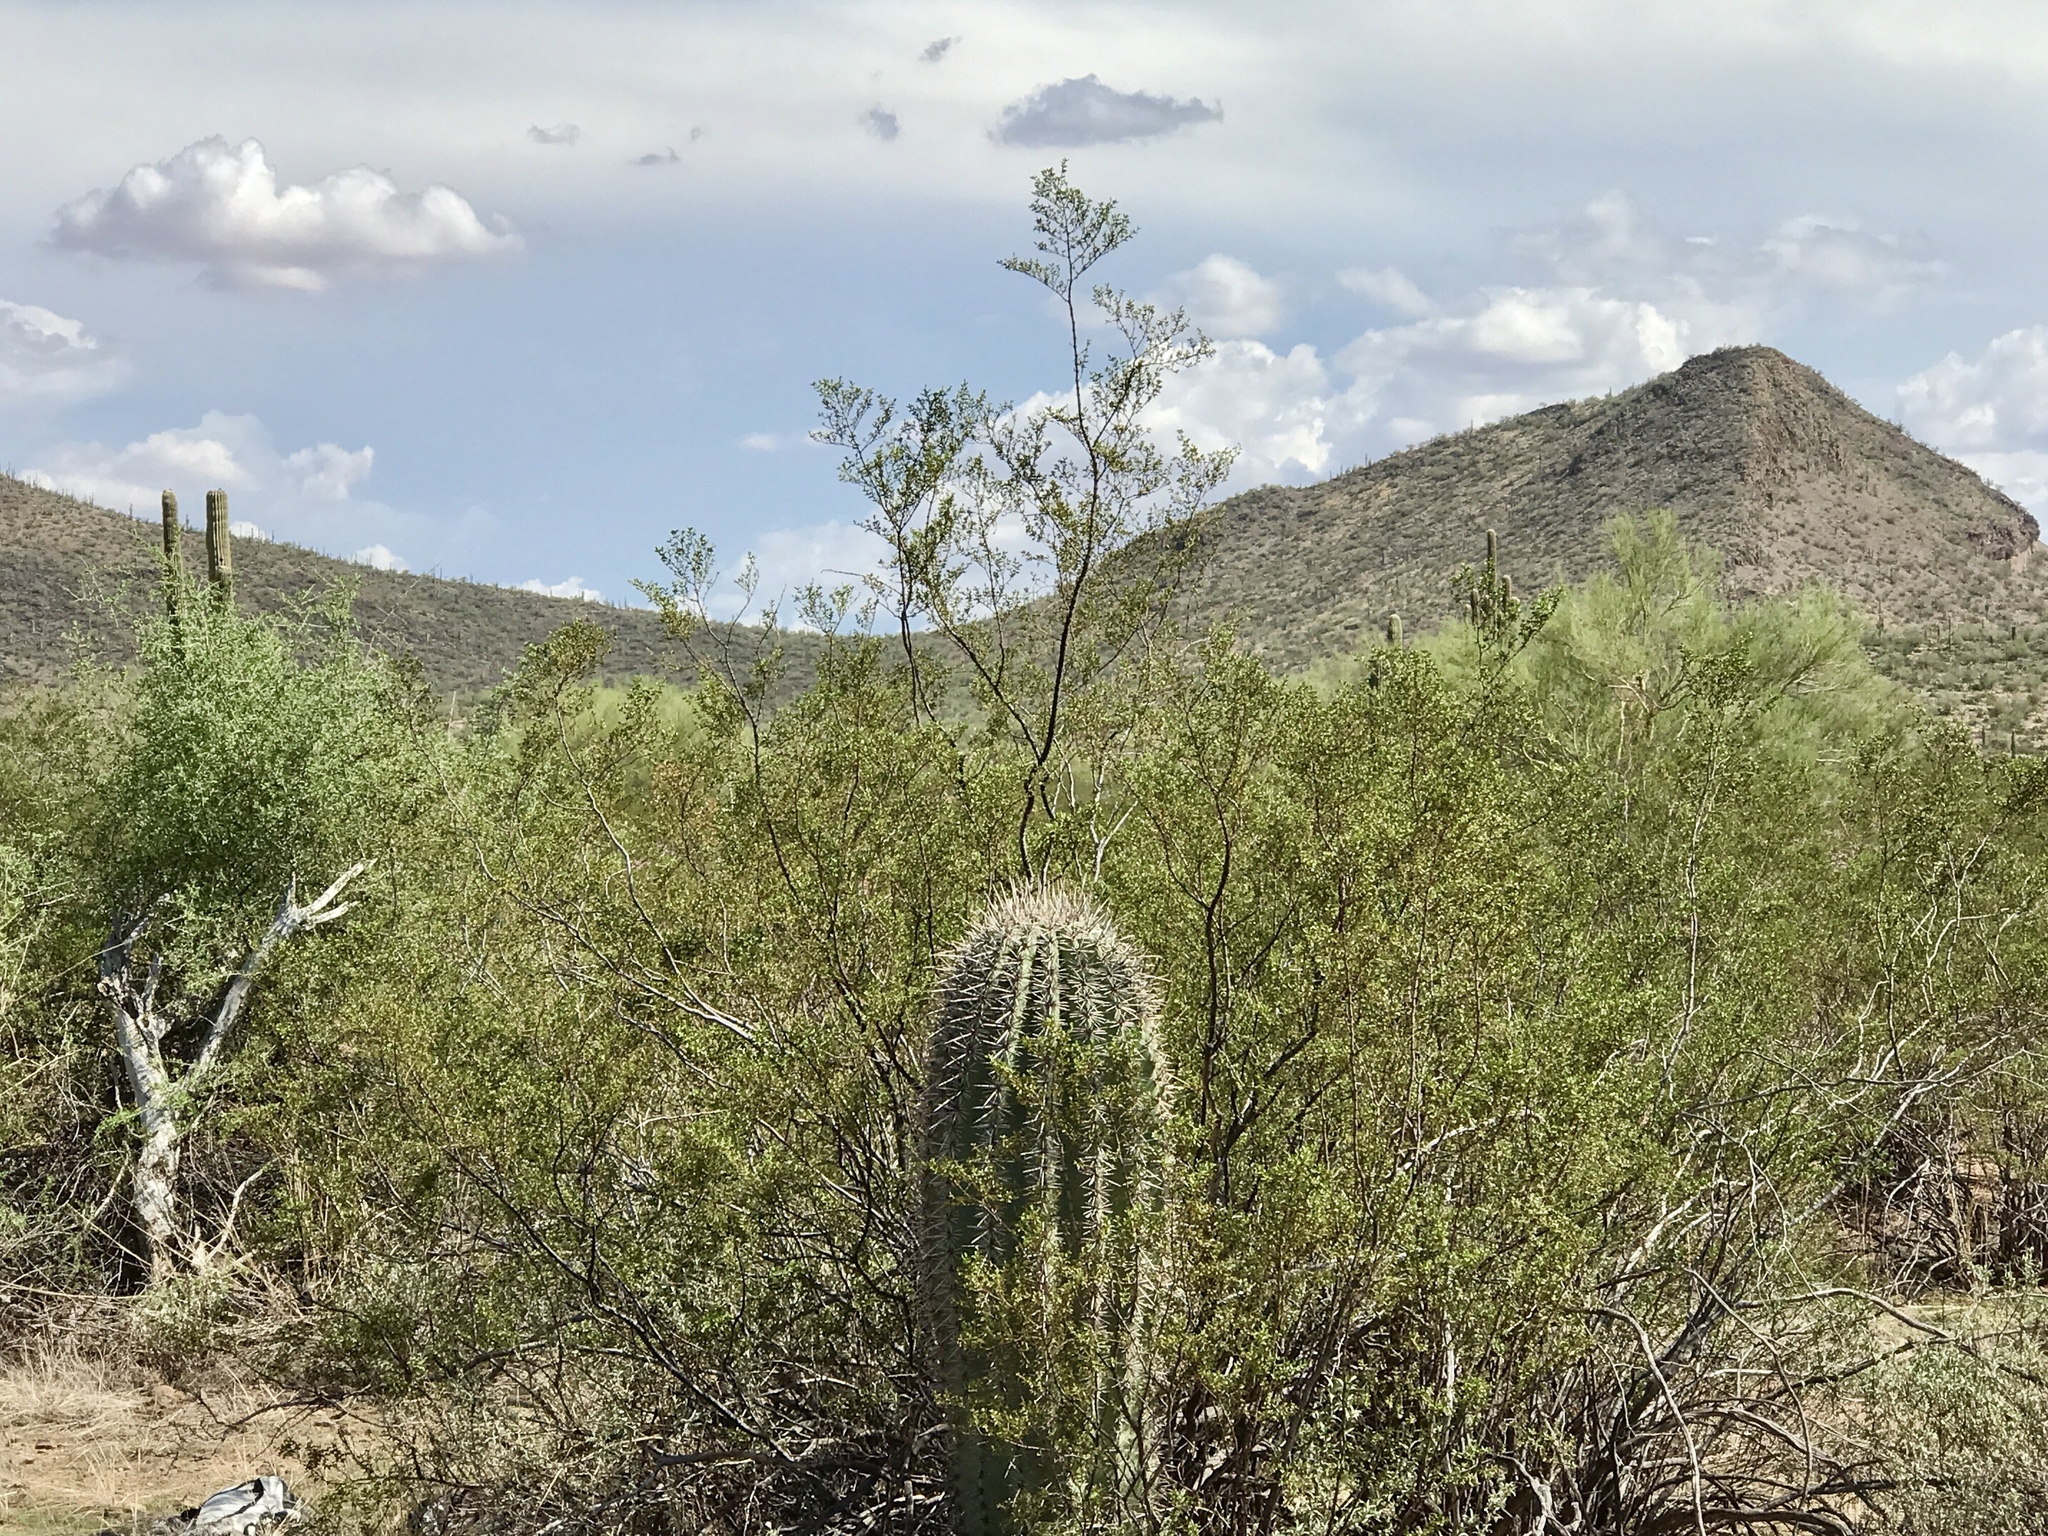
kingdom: Plantae
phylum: Tracheophyta
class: Magnoliopsida
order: Caryophyllales
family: Cactaceae
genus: Carnegiea
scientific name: Carnegiea gigantea
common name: Saguaro
